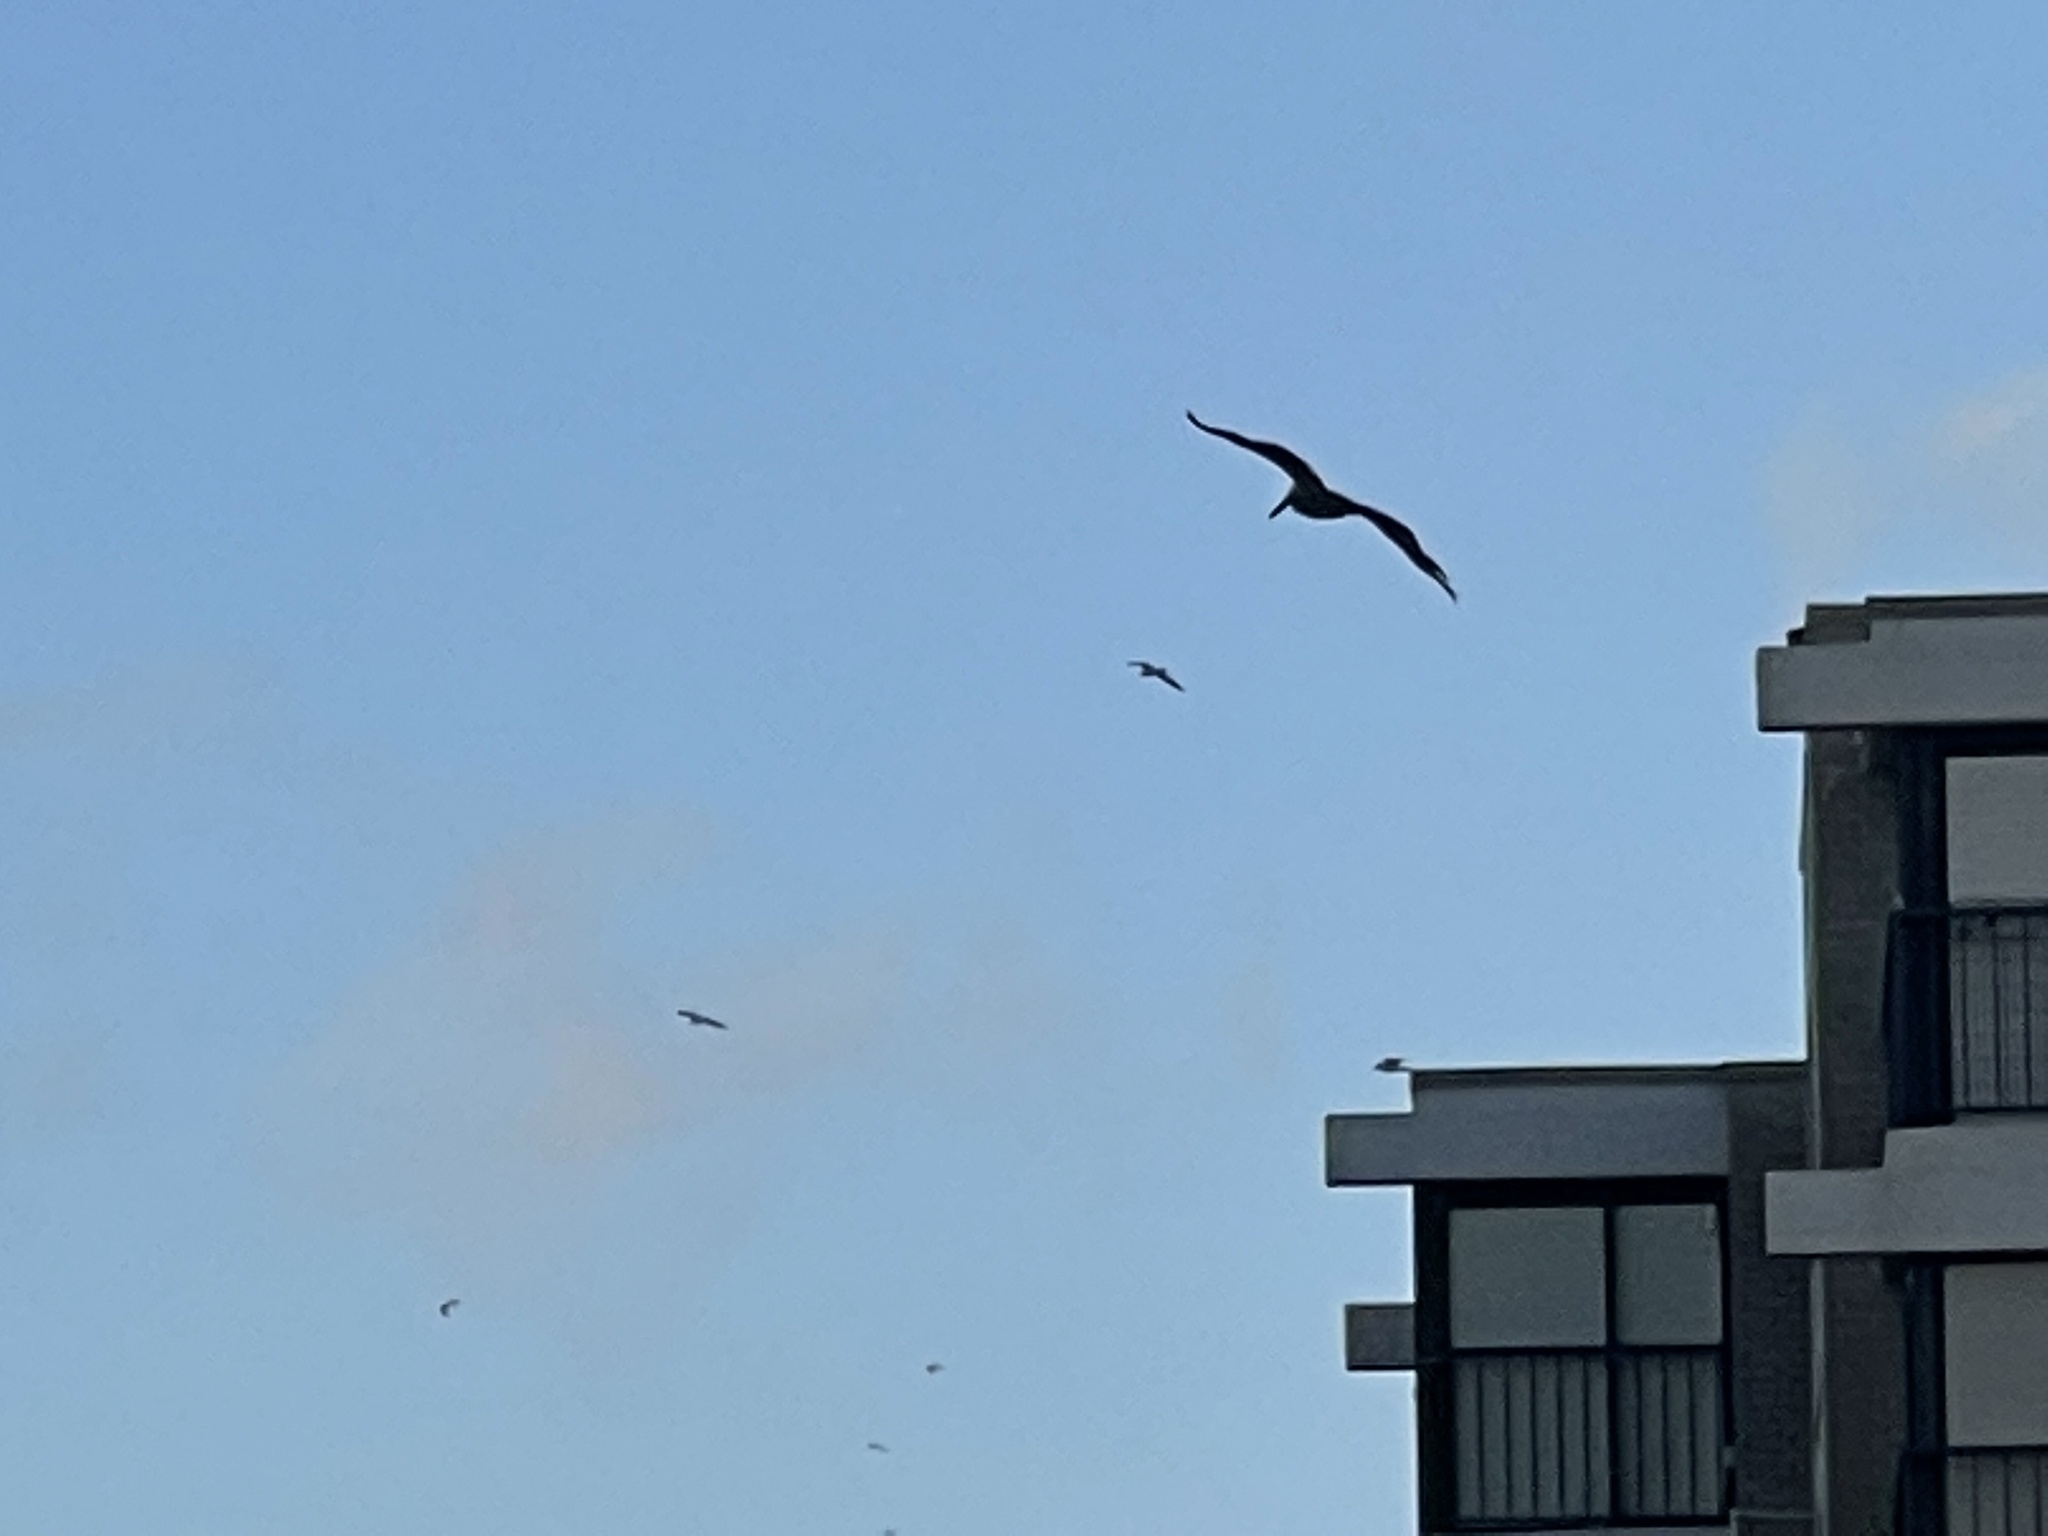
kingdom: Animalia
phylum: Chordata
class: Aves
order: Pelecaniformes
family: Pelecanidae
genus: Pelecanus
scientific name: Pelecanus occidentalis
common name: Brown pelican
